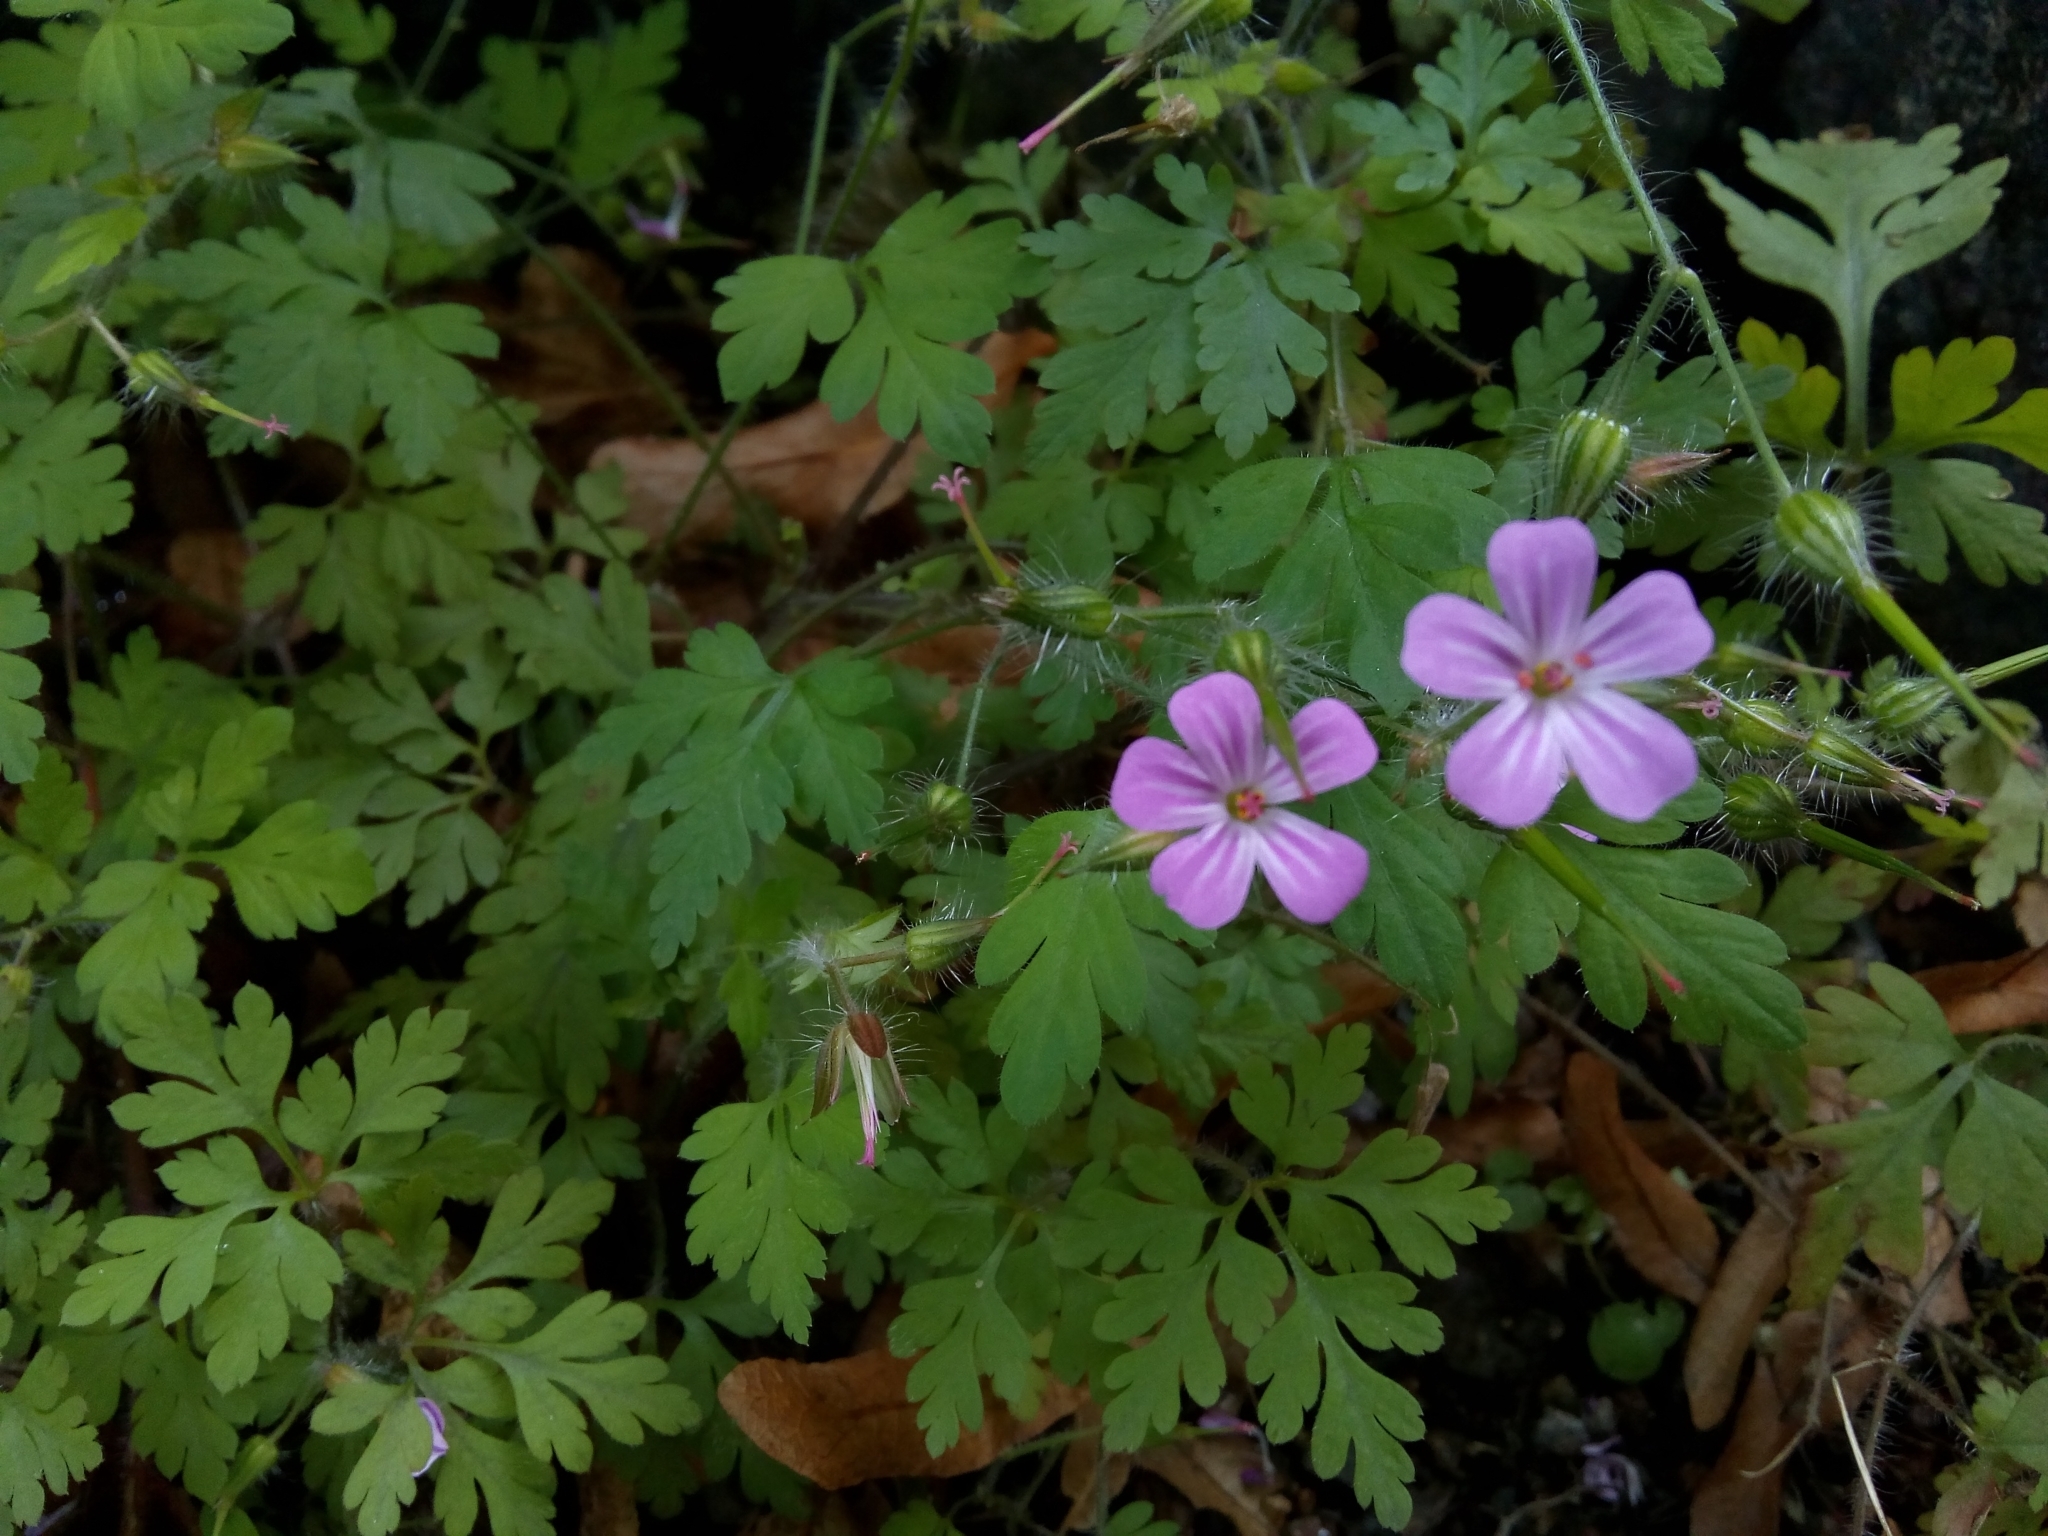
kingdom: Plantae
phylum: Tracheophyta
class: Magnoliopsida
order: Geraniales
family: Geraniaceae
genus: Geranium
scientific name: Geranium robertianum
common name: Herb-robert
